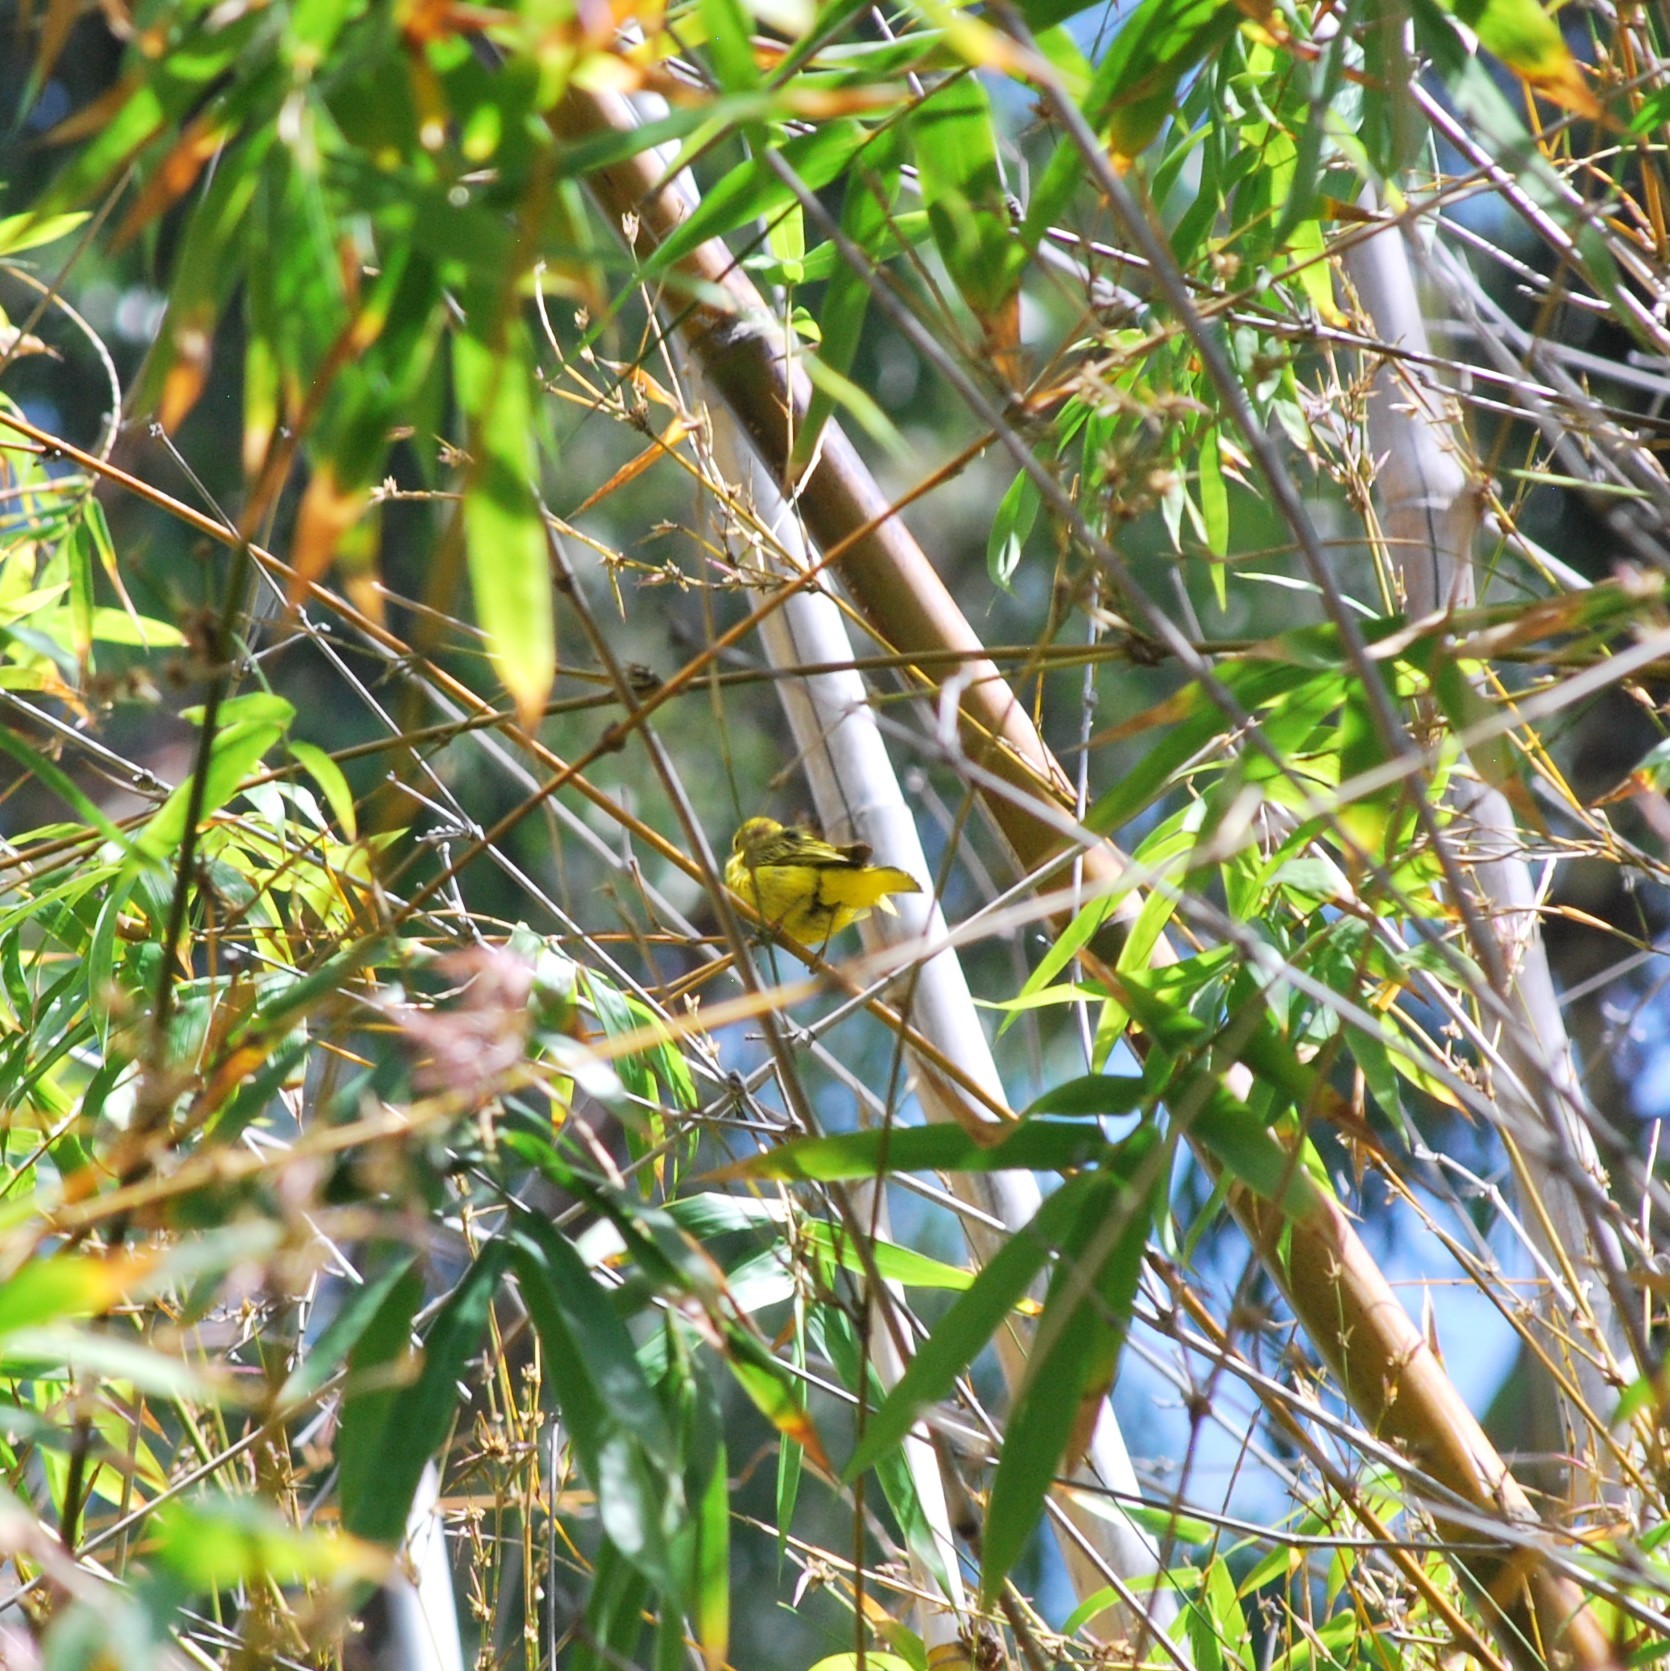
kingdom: Animalia
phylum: Chordata
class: Aves
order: Passeriformes
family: Parulidae
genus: Setophaga
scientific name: Setophaga petechia
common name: Yellow warbler
